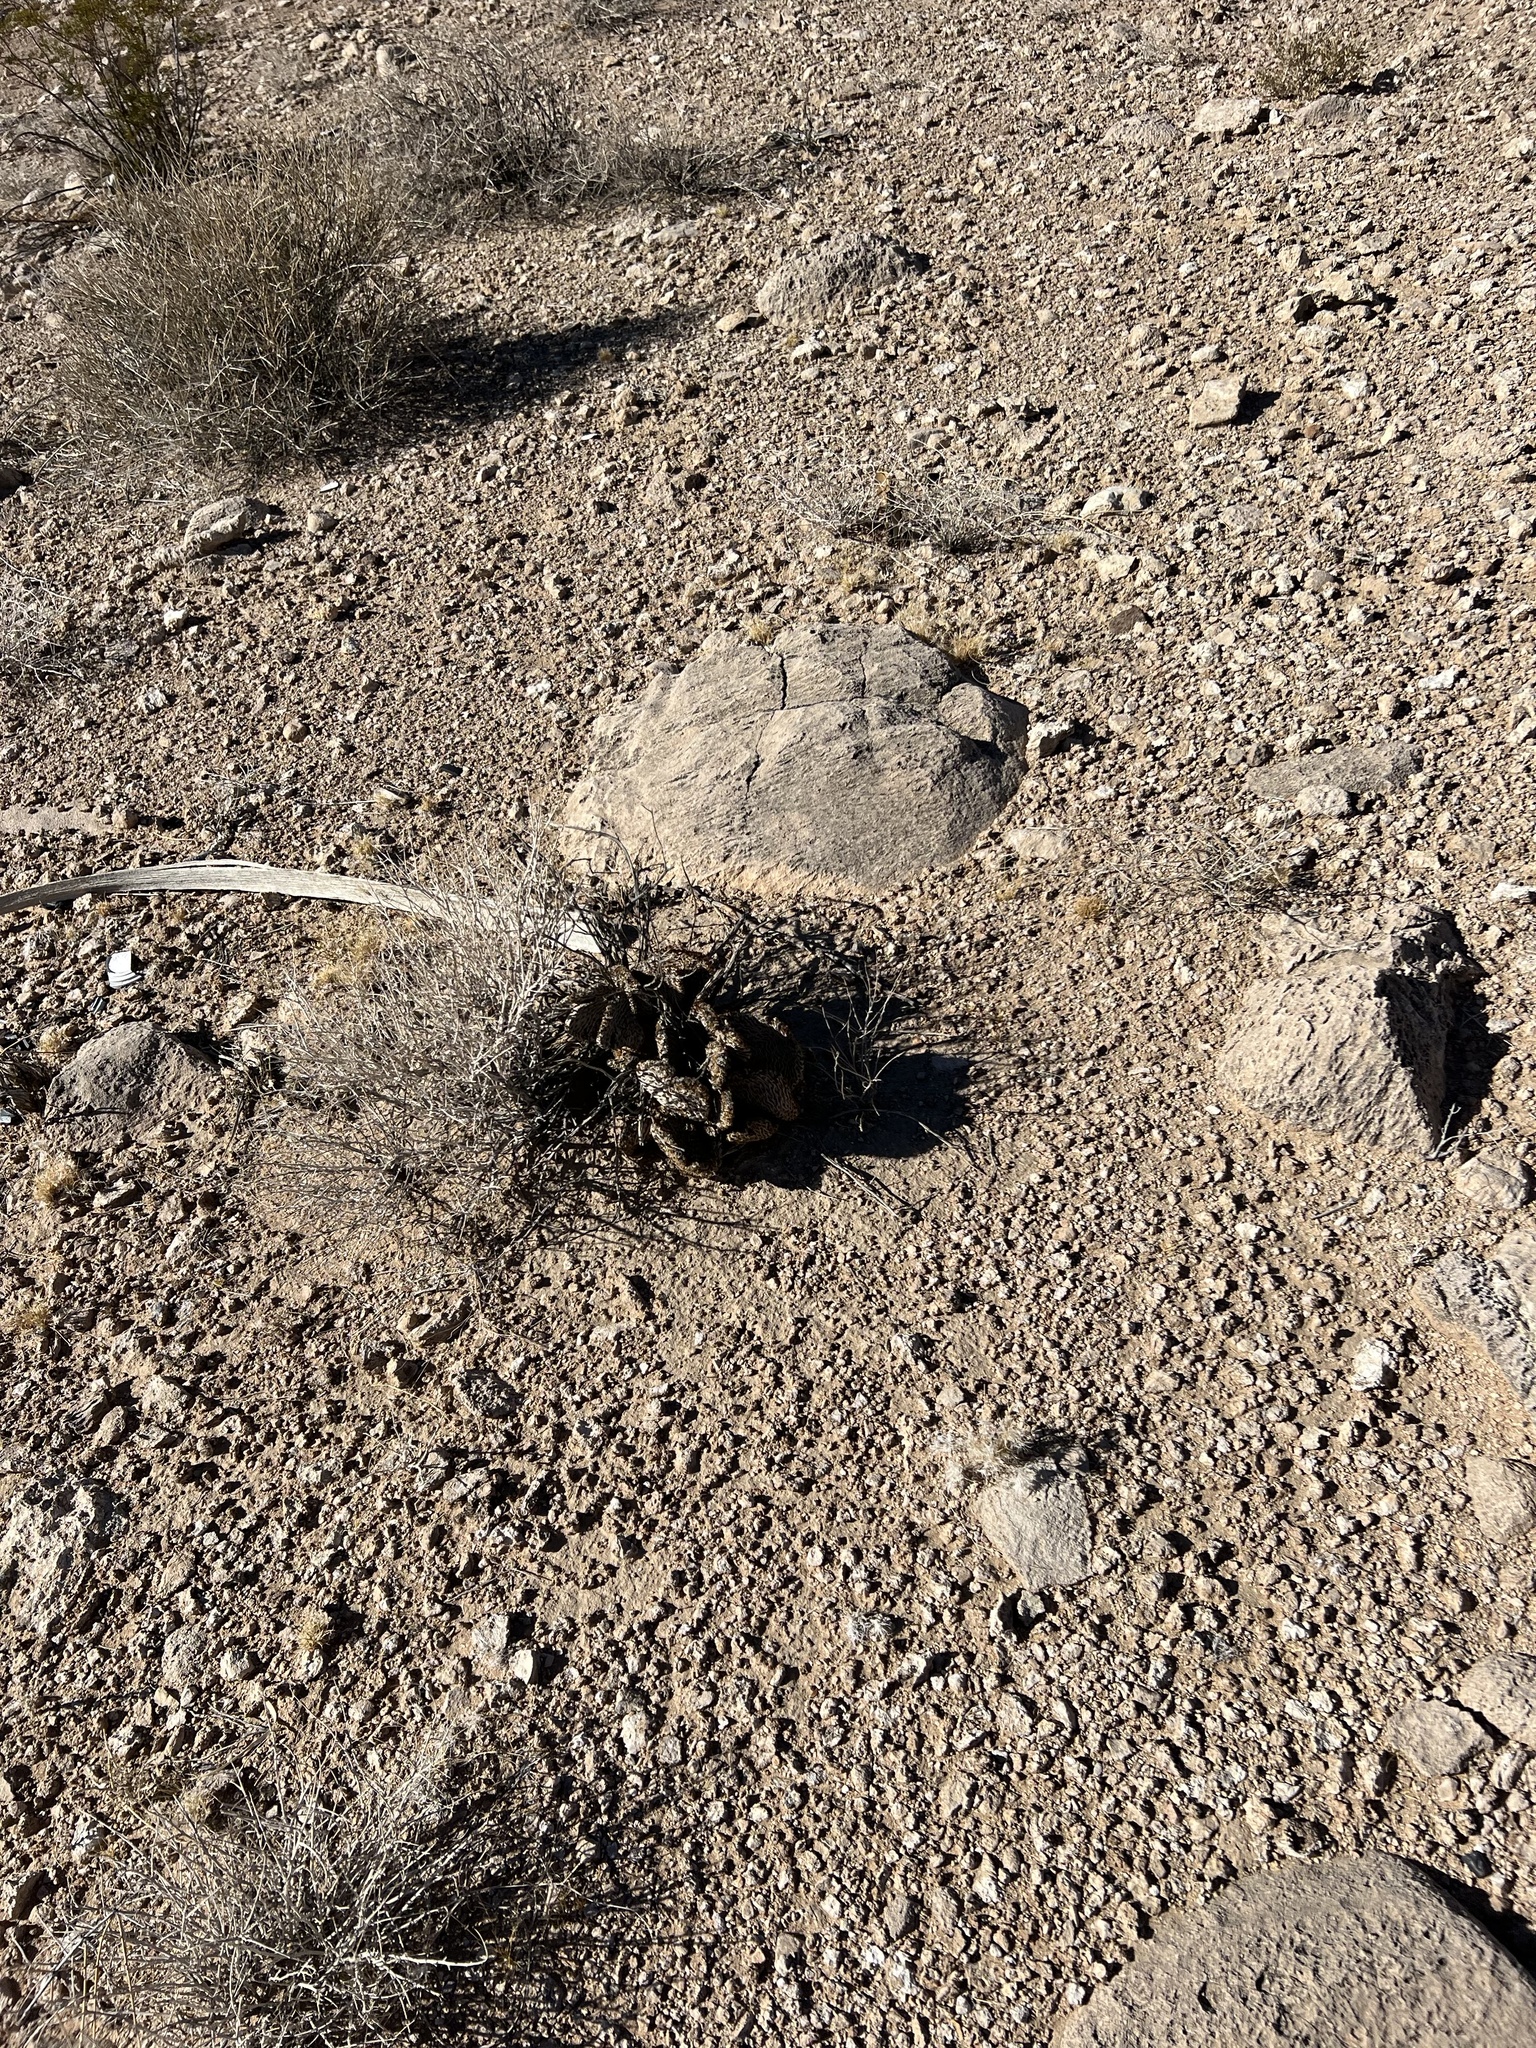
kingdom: Plantae
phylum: Tracheophyta
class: Magnoliopsida
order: Caryophyllales
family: Cactaceae
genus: Opuntia
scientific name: Opuntia basilaris
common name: Beavertail prickly-pear
